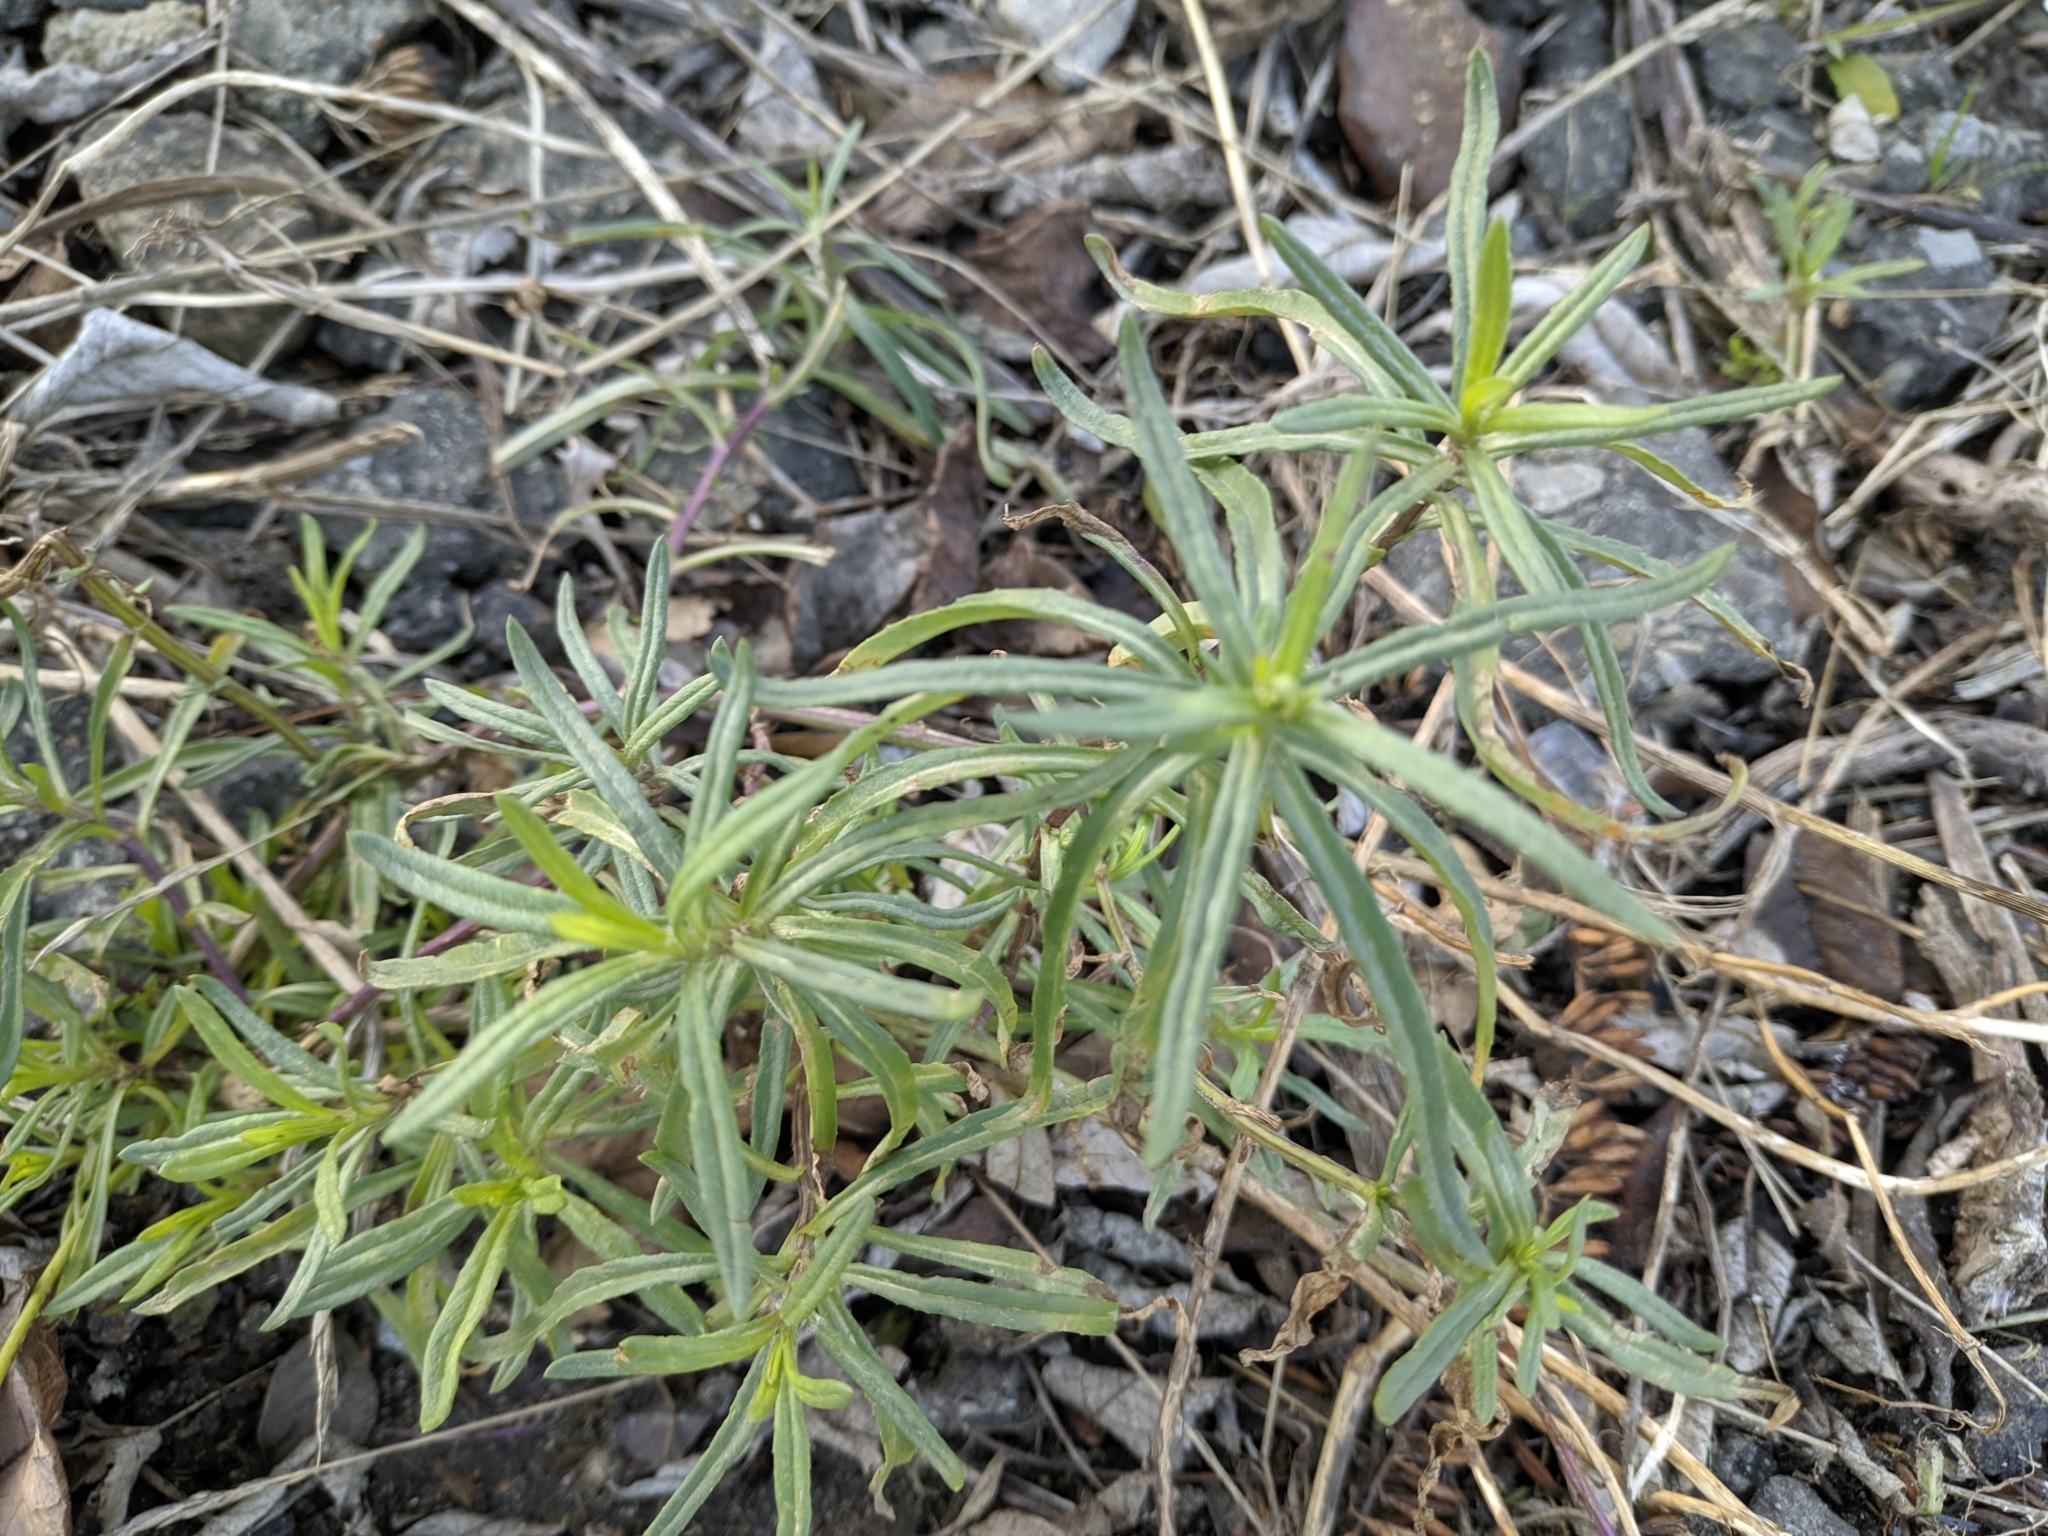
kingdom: Plantae
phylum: Tracheophyta
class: Magnoliopsida
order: Asterales
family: Asteraceae
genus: Senecio
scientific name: Senecio inaequidens
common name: Narrow-leaved ragwort
